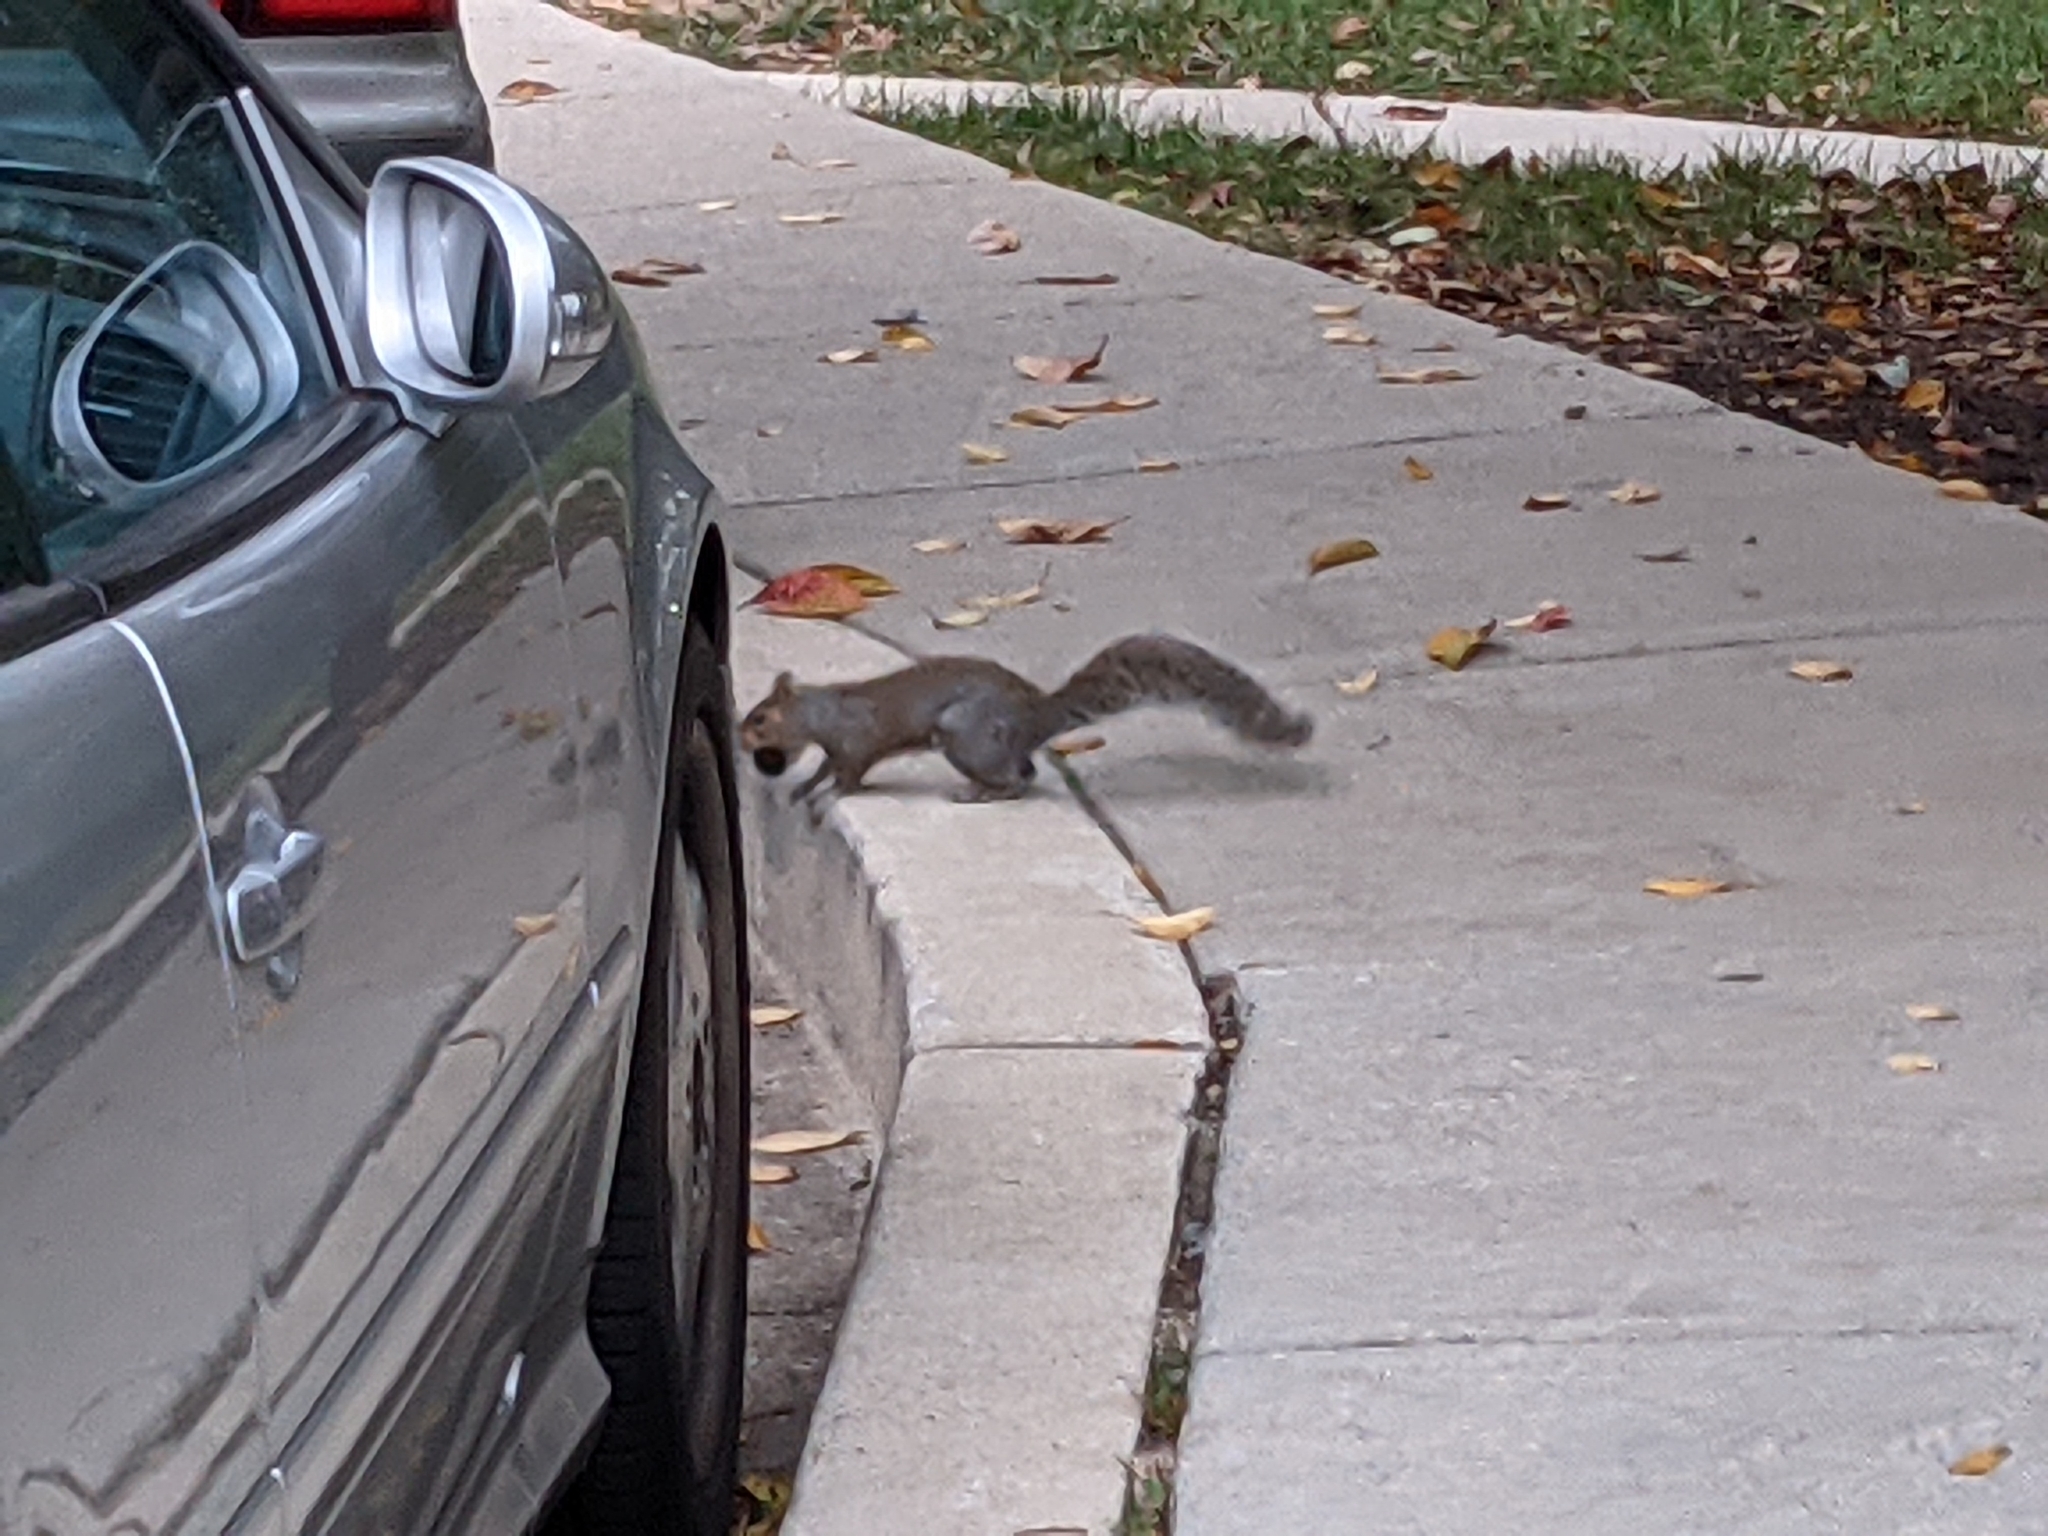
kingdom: Animalia
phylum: Chordata
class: Mammalia
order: Rodentia
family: Sciuridae
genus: Sciurus
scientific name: Sciurus carolinensis
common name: Eastern gray squirrel
